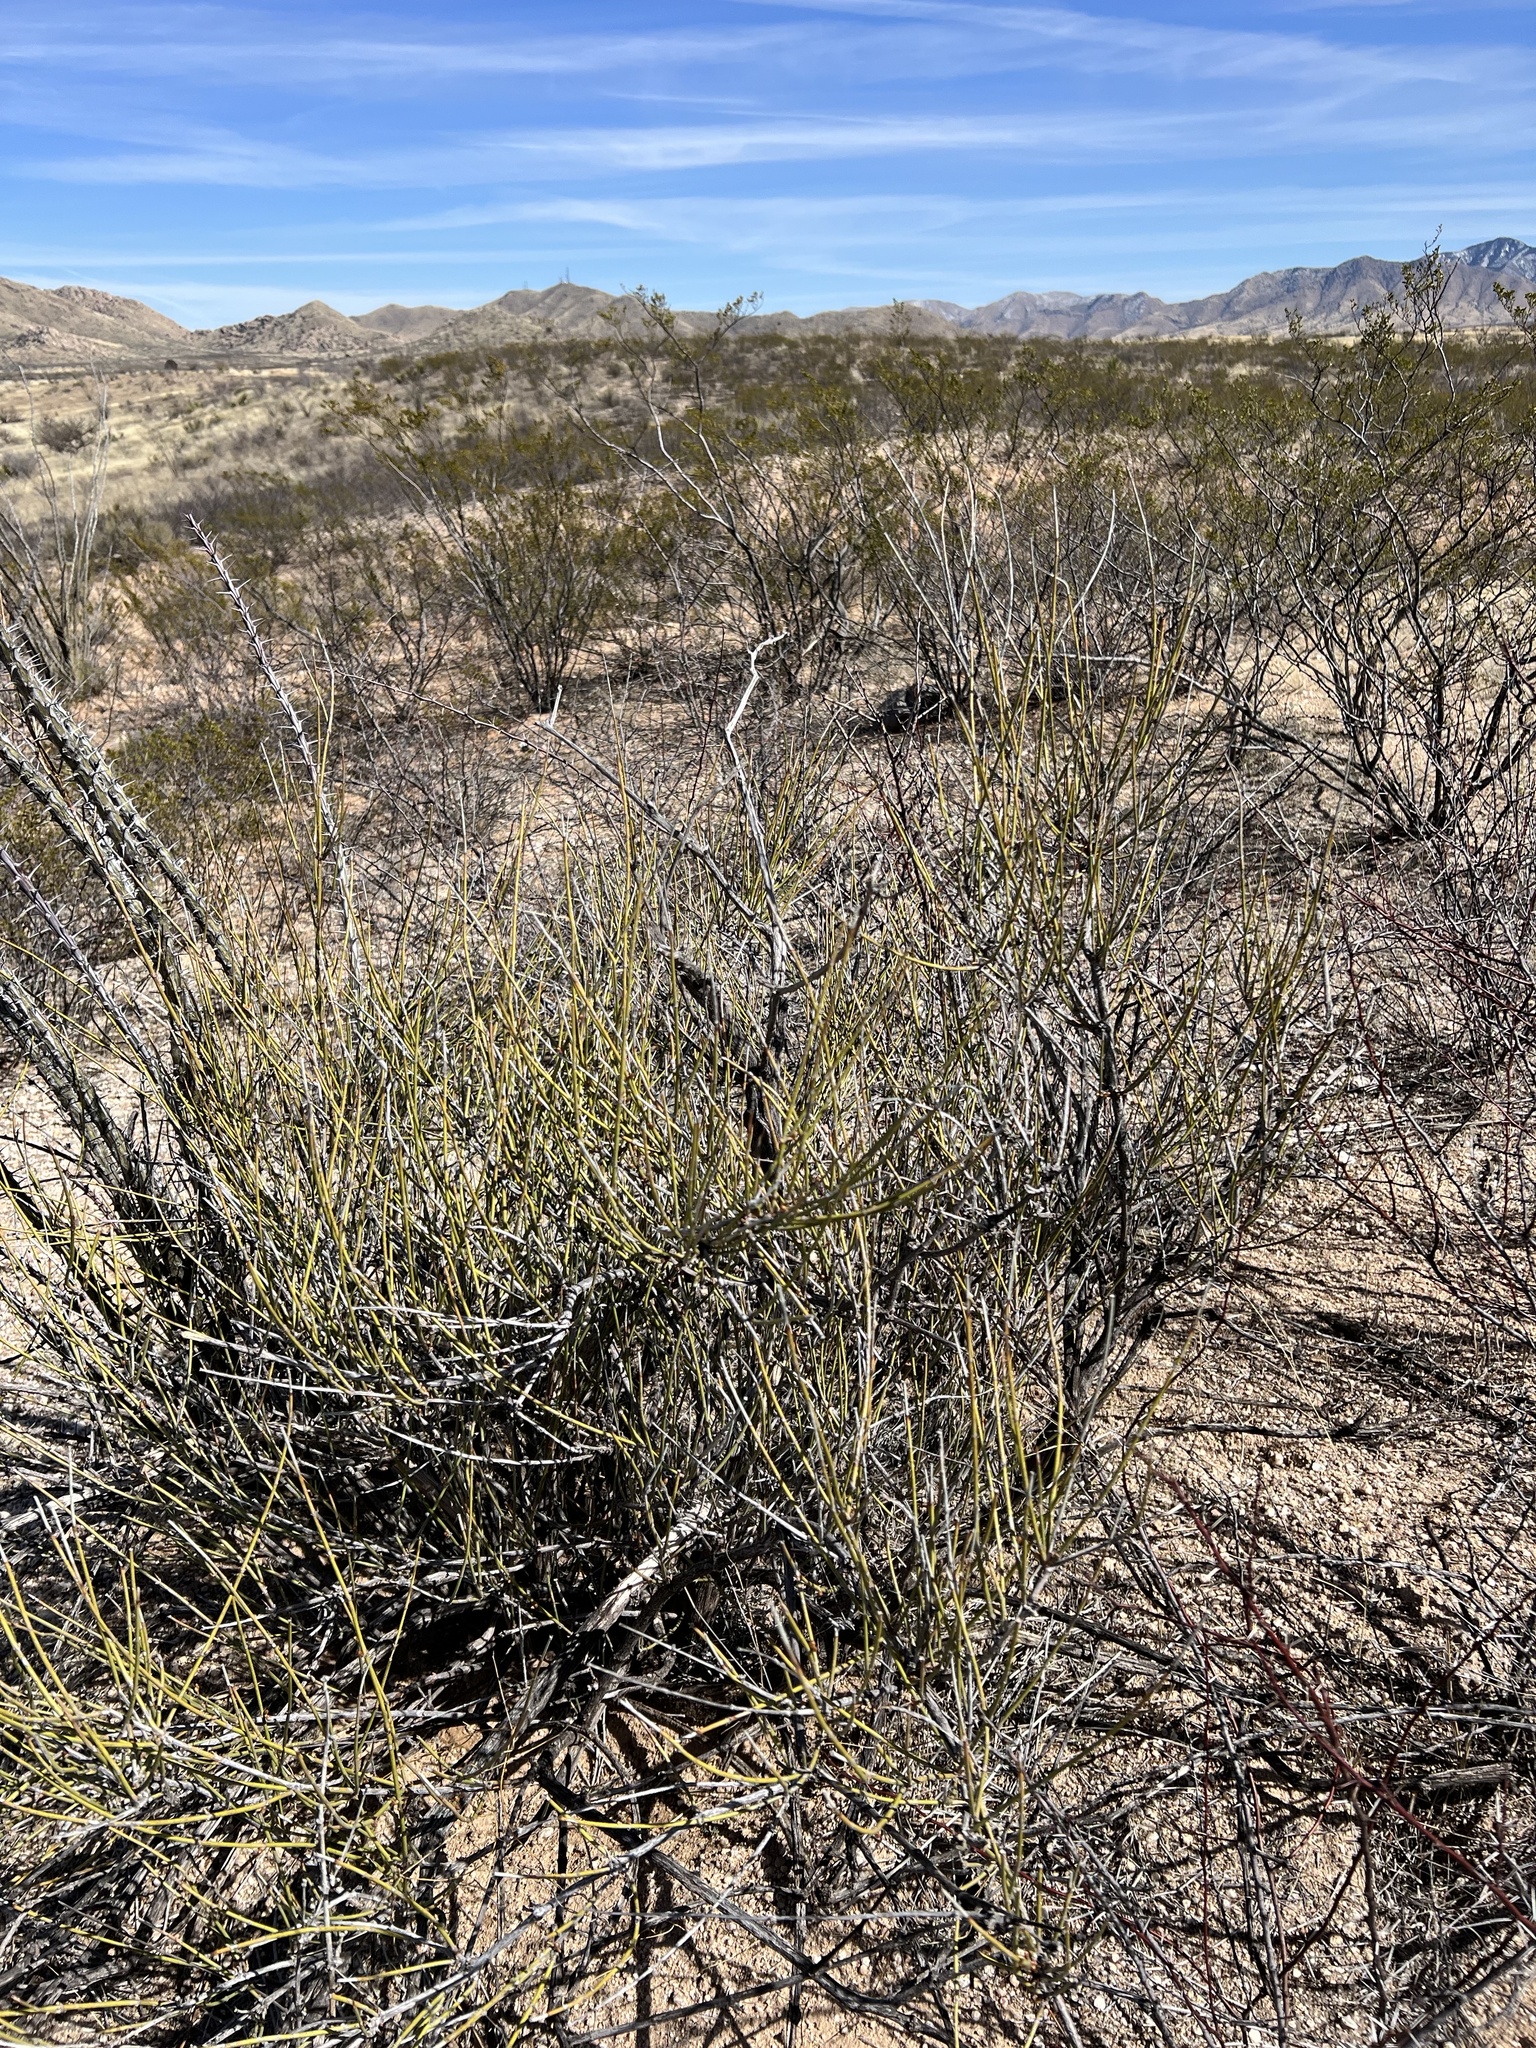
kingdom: Plantae
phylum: Tracheophyta
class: Gnetopsida
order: Ephedrales
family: Ephedraceae
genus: Ephedra
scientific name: Ephedra trifurca
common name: Mexican-tea
